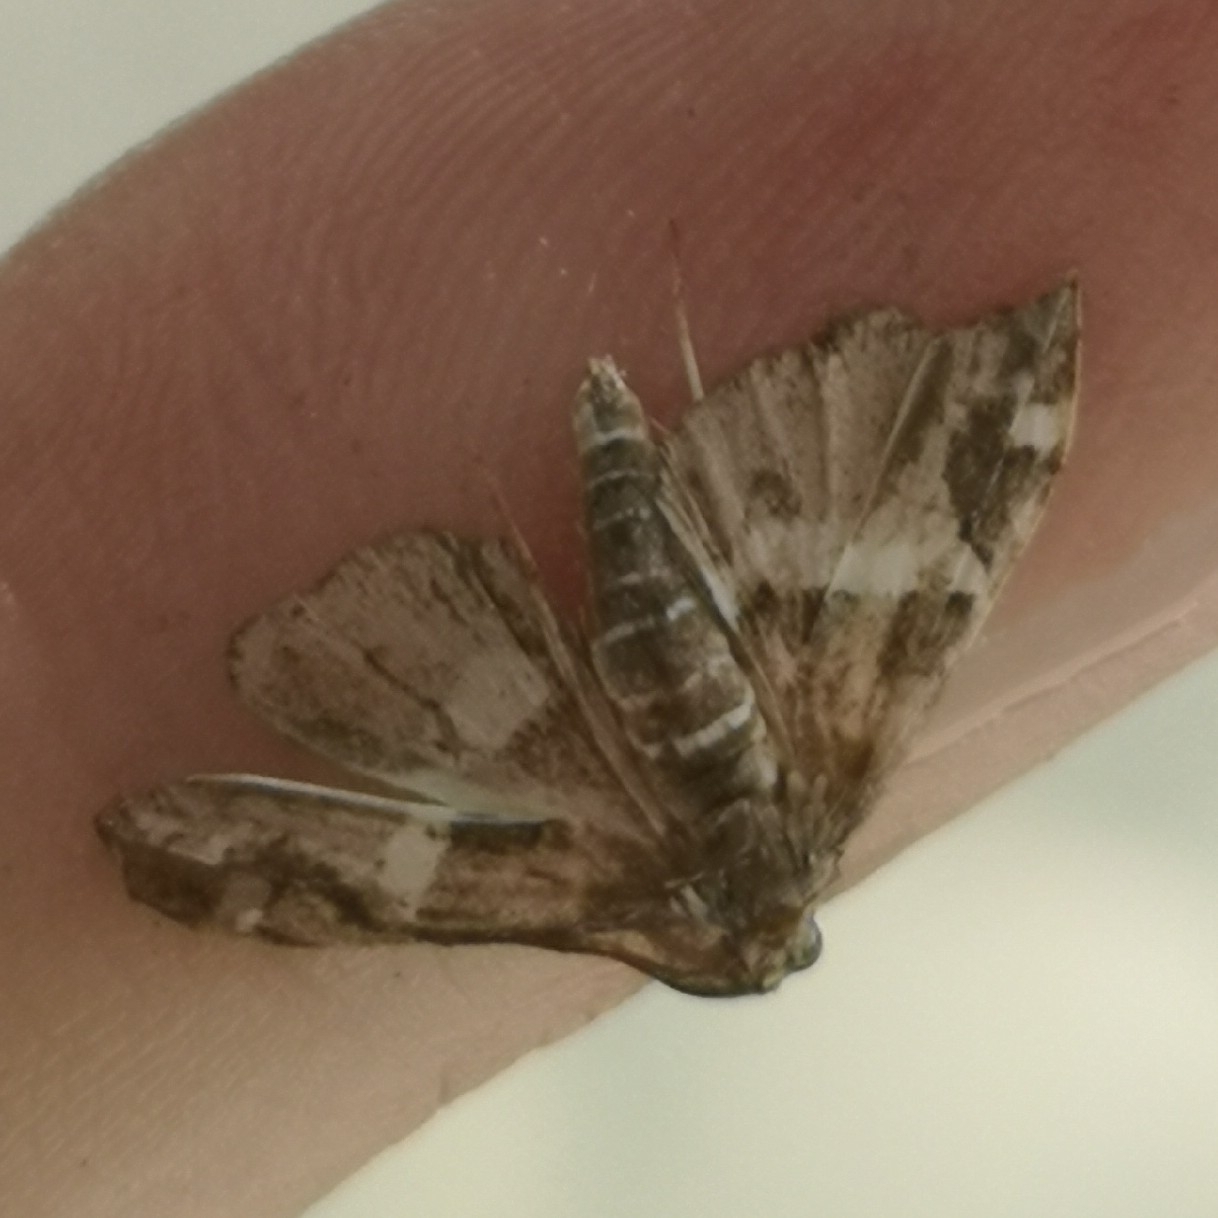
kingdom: Animalia
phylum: Arthropoda
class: Insecta
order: Lepidoptera
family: Crambidae
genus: Spoladea
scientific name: Spoladea recurvalis
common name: Beet webworm moth
